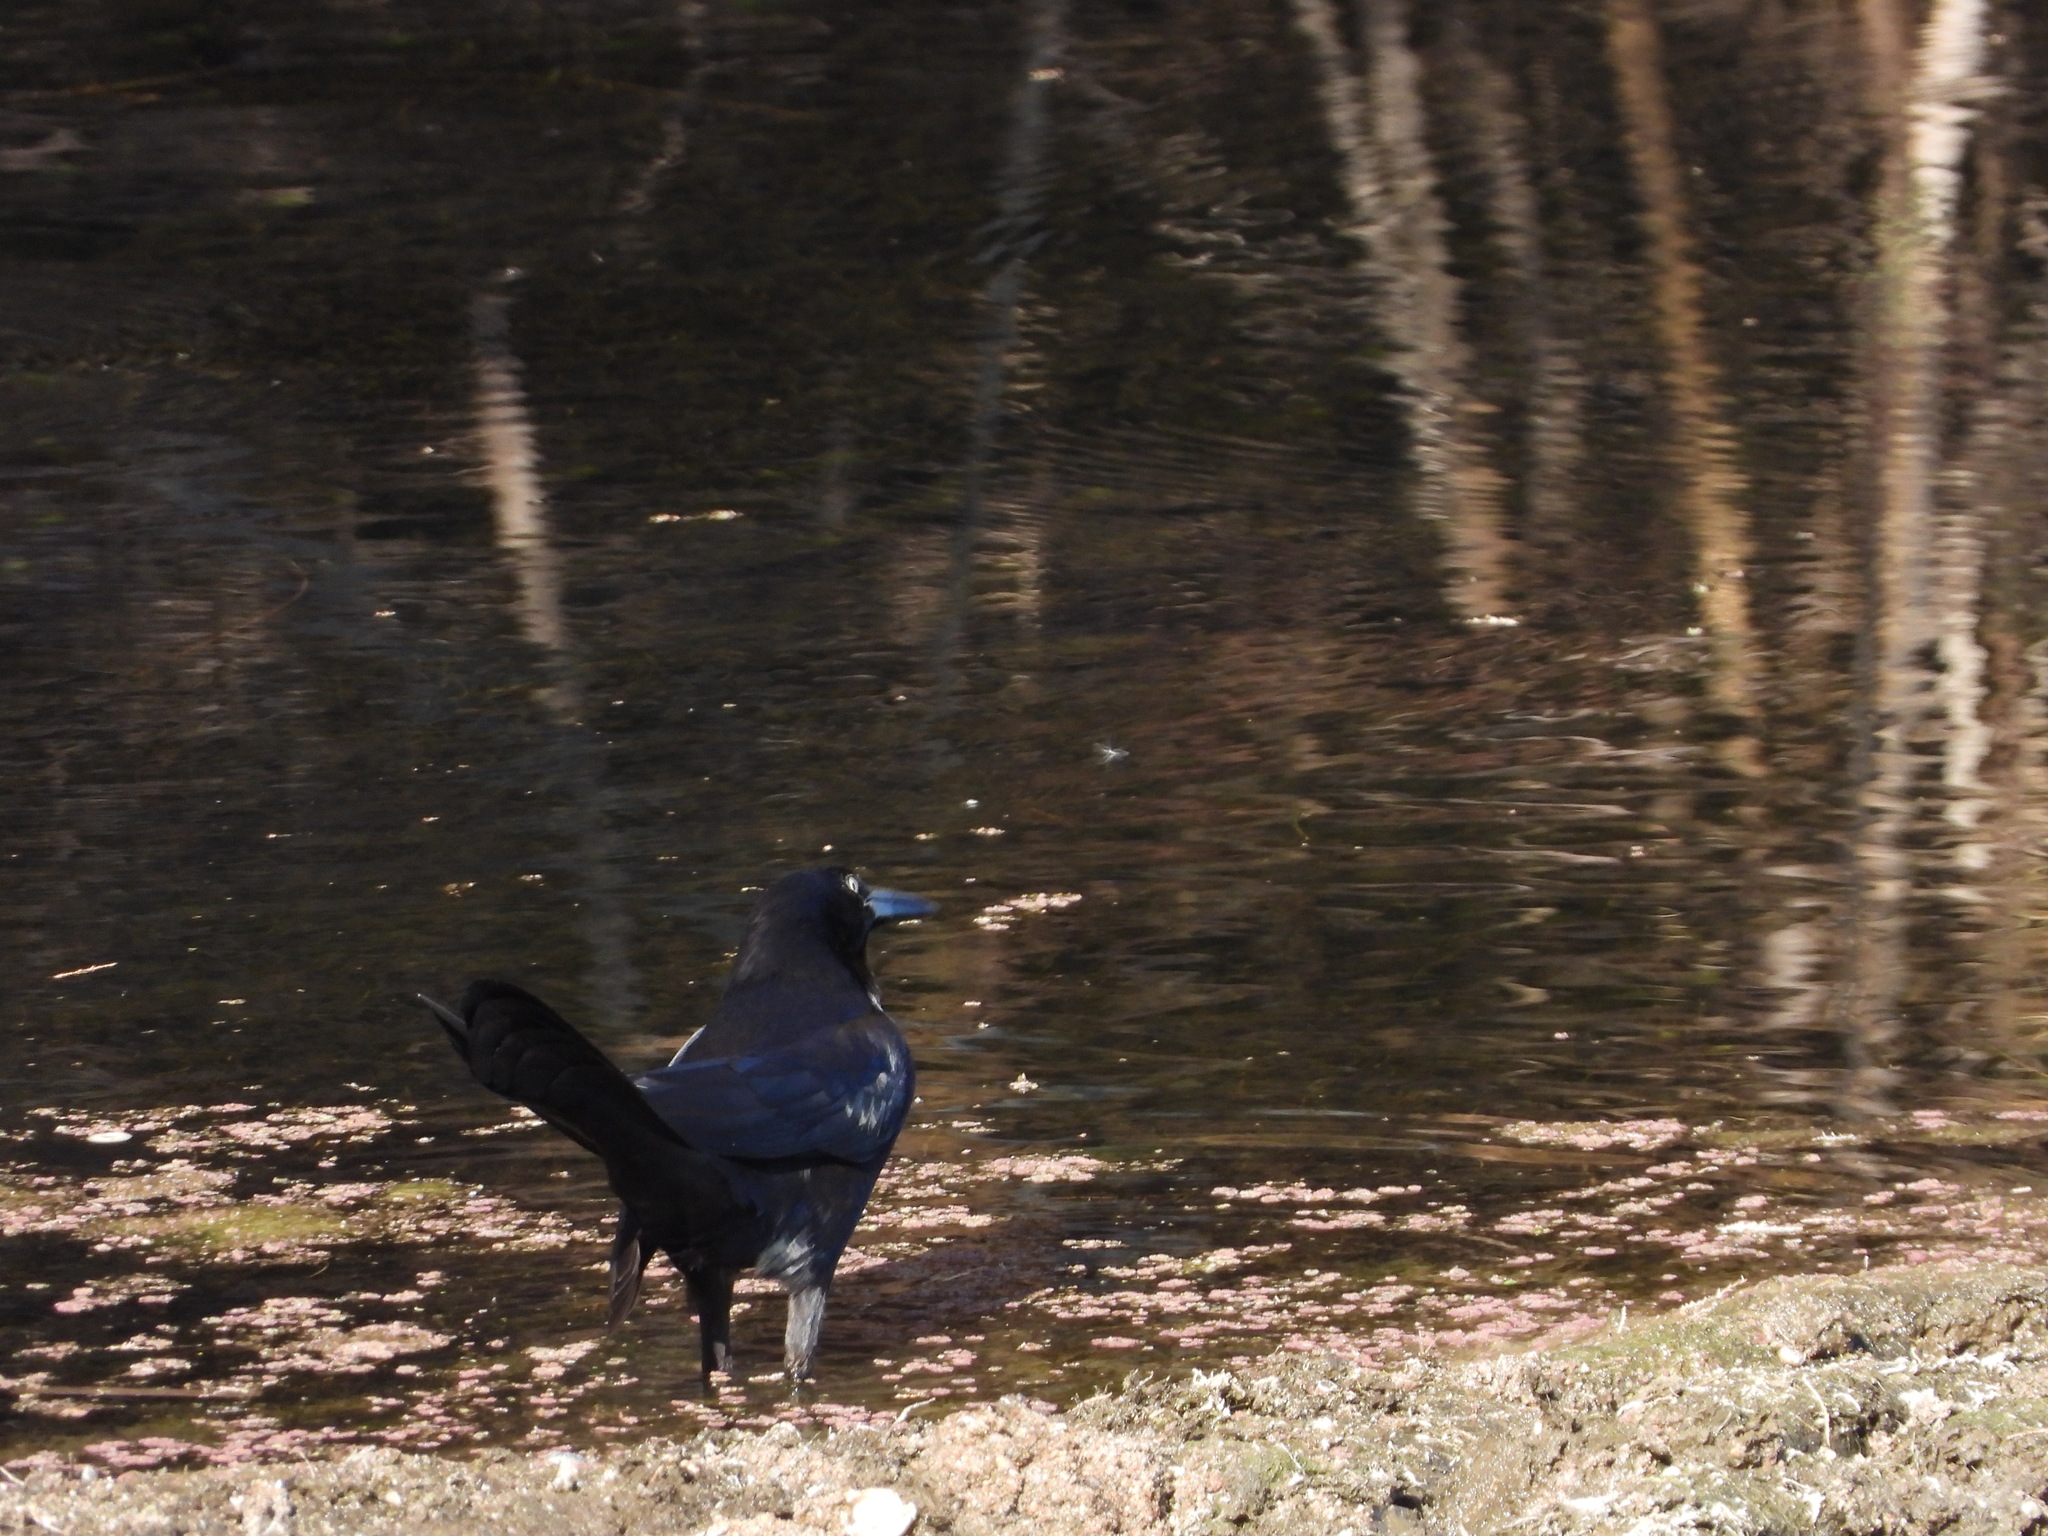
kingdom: Animalia
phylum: Chordata
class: Aves
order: Passeriformes
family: Icteridae
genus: Quiscalus
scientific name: Quiscalus mexicanus
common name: Great-tailed grackle
